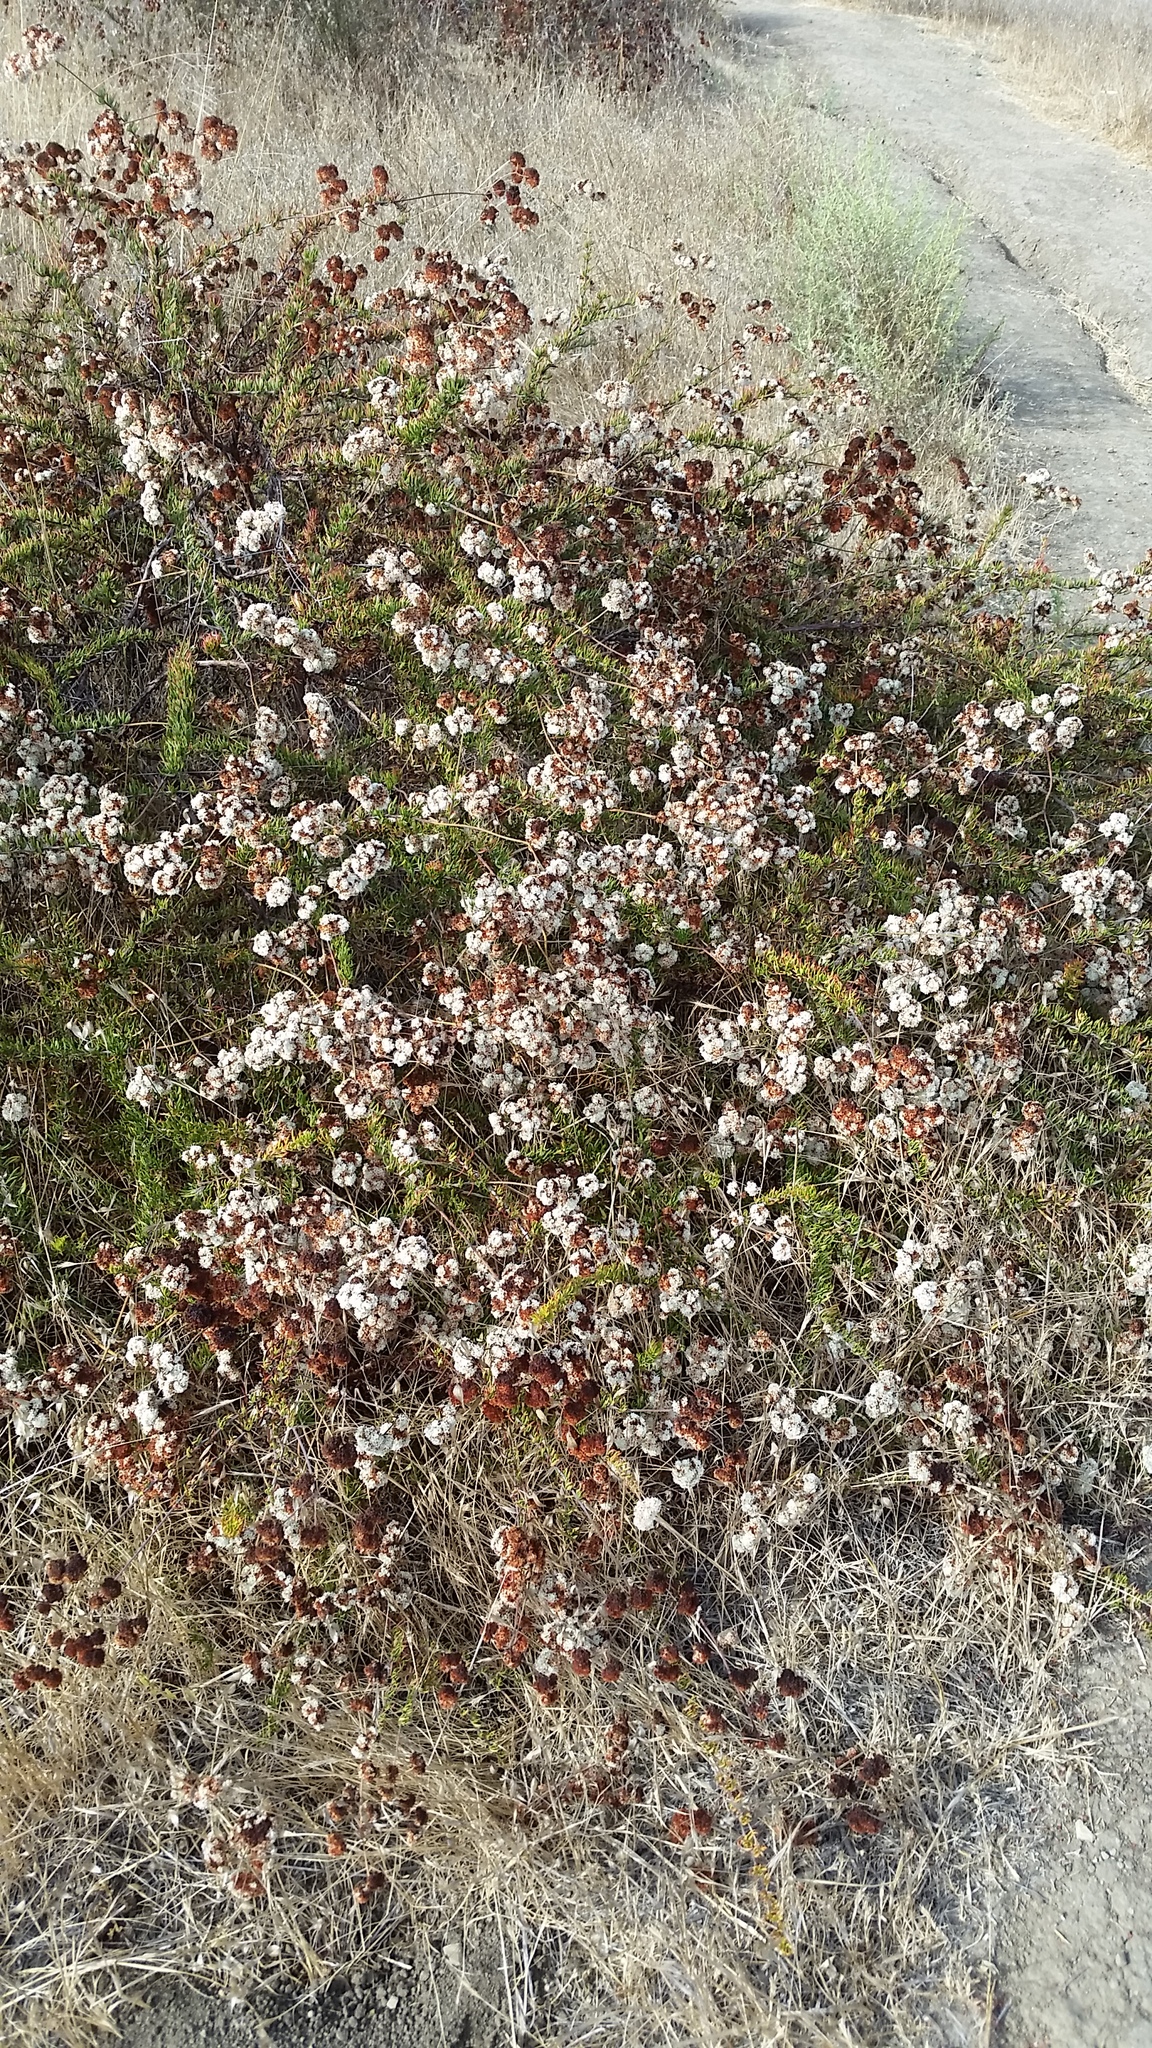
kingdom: Plantae
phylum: Tracheophyta
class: Magnoliopsida
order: Caryophyllales
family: Polygonaceae
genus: Eriogonum
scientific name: Eriogonum fasciculatum
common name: California wild buckwheat
